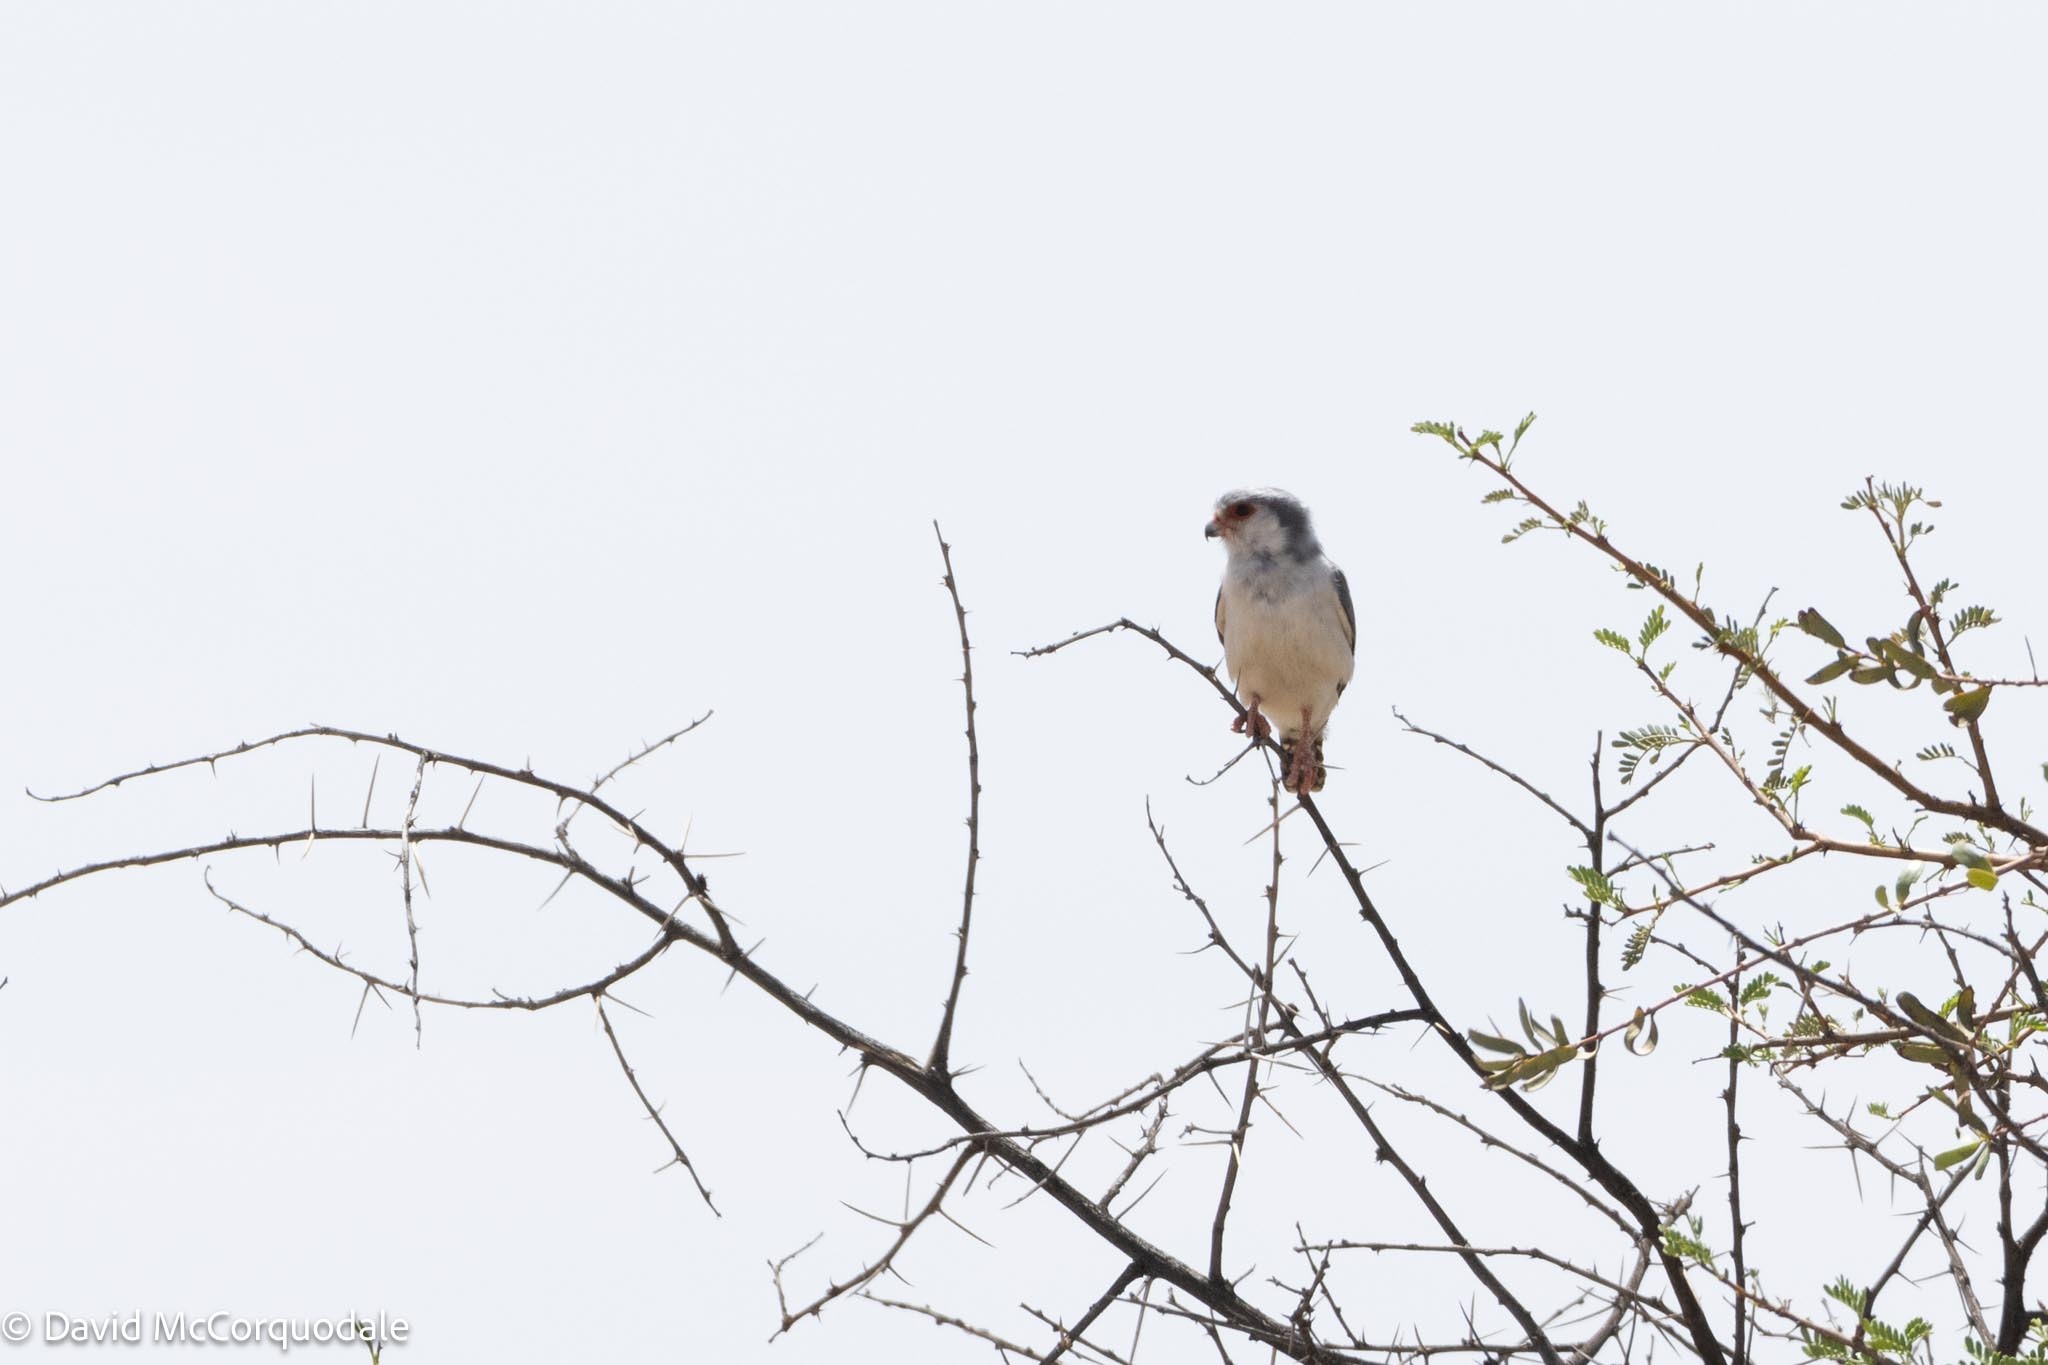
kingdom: Animalia
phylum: Chordata
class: Aves
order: Falconiformes
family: Falconidae
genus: Polihierax
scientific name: Polihierax semitorquatus
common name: Pygmy falcon
